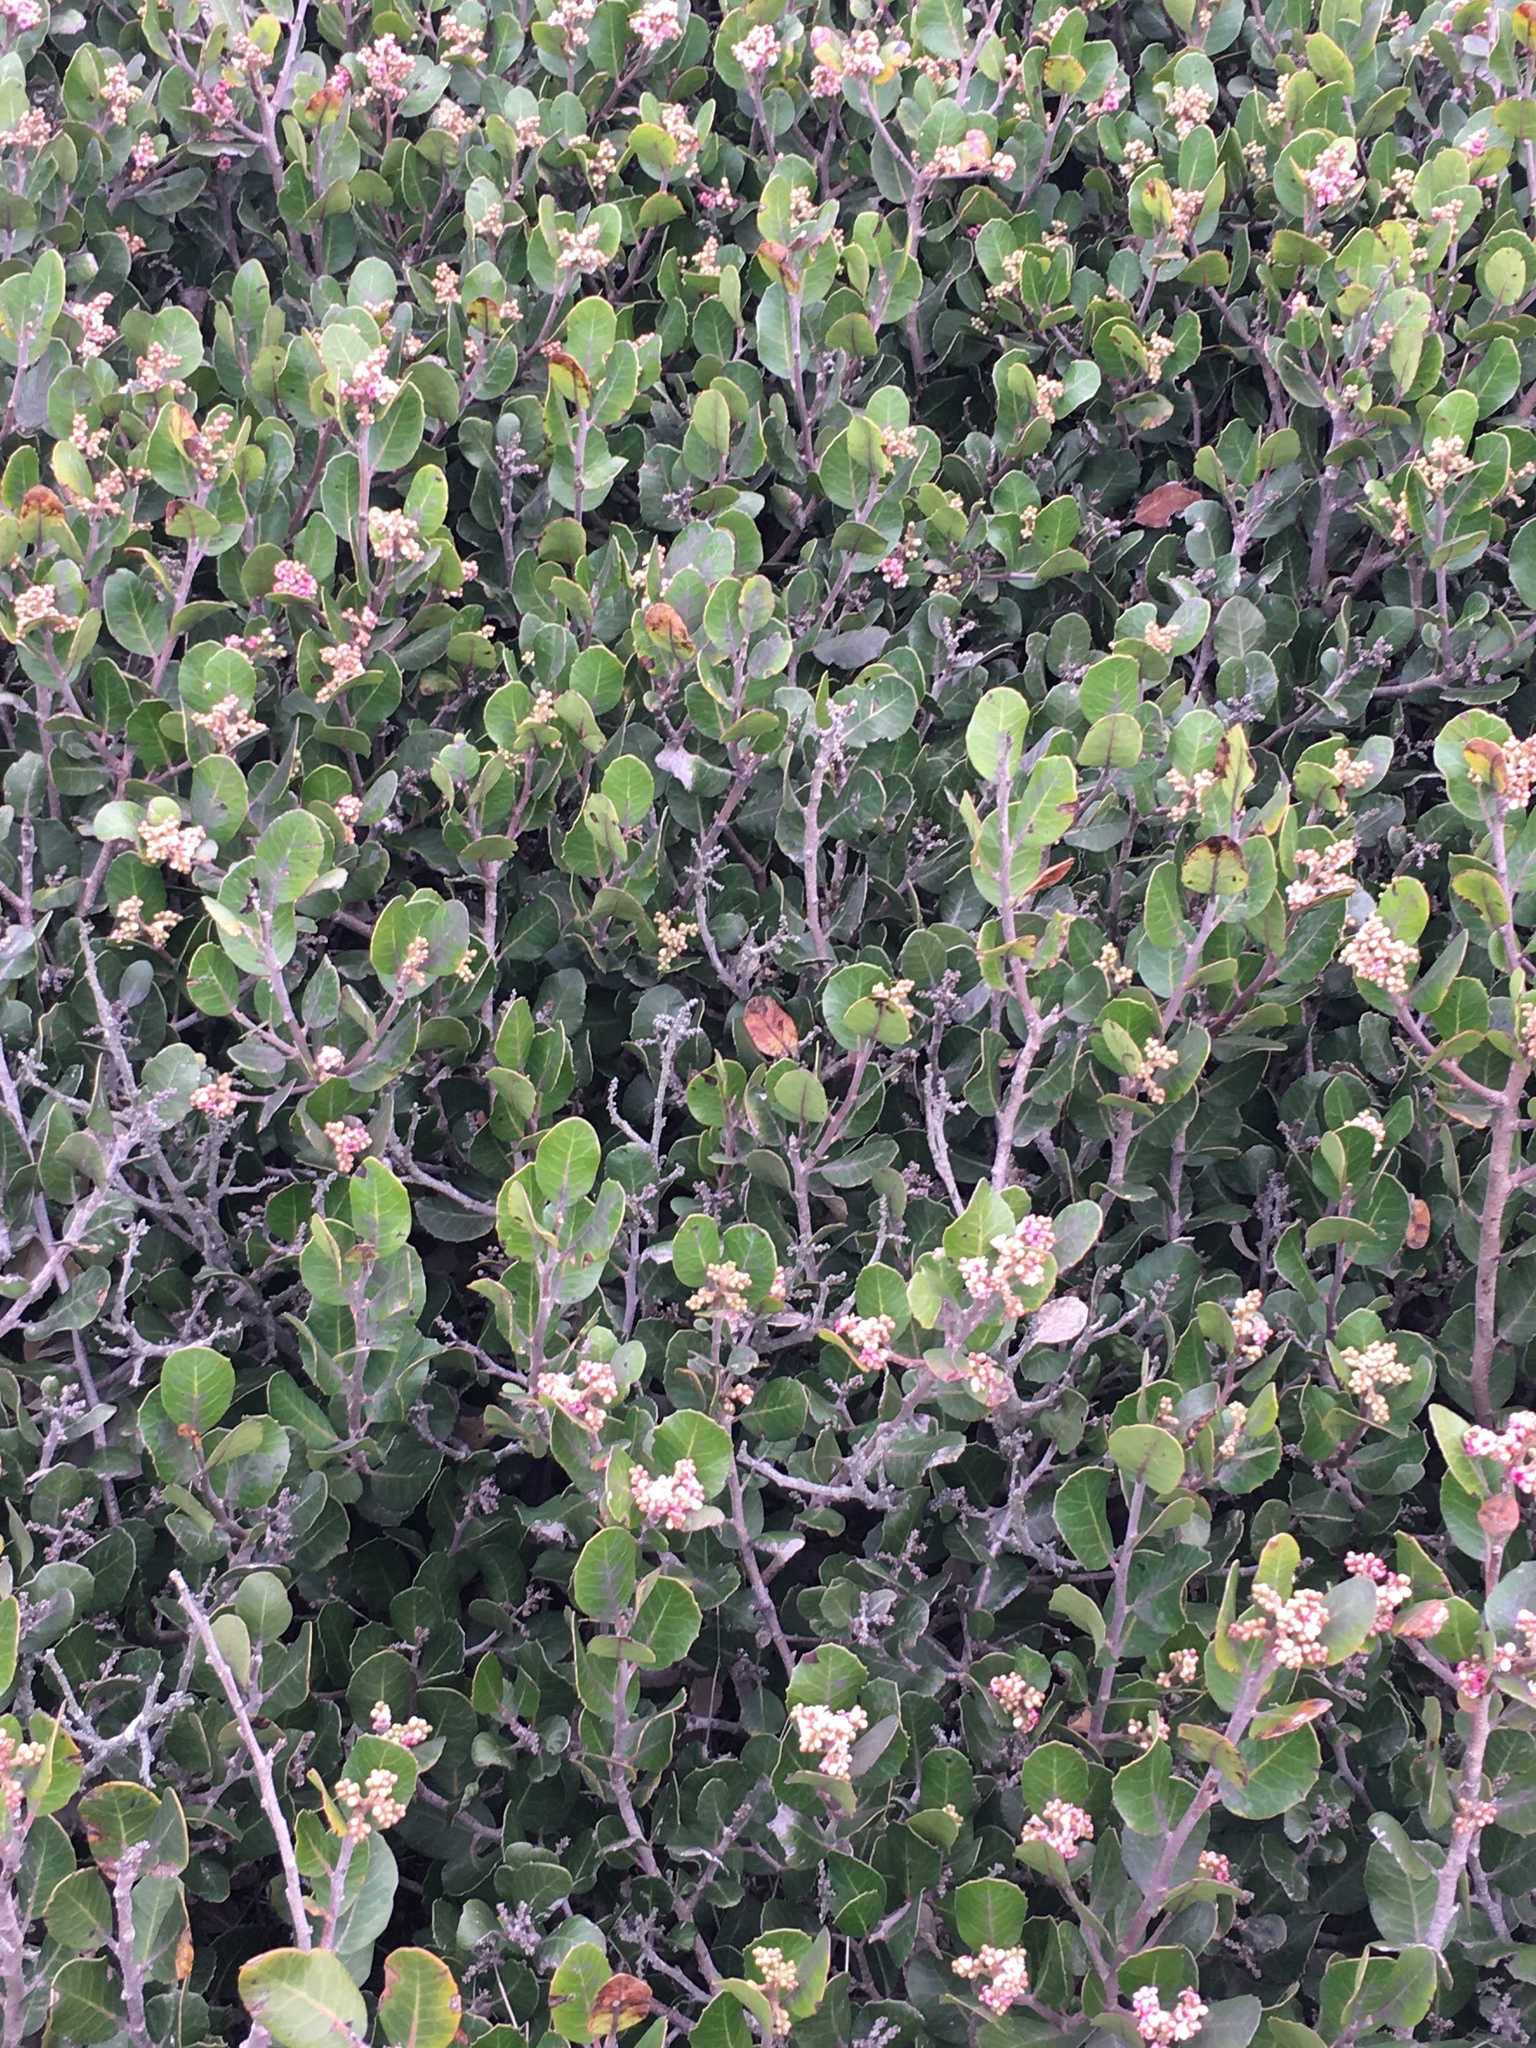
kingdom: Plantae
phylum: Tracheophyta
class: Magnoliopsida
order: Sapindales
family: Anacardiaceae
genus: Rhus
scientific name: Rhus integrifolia
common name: Lemonade sumac
